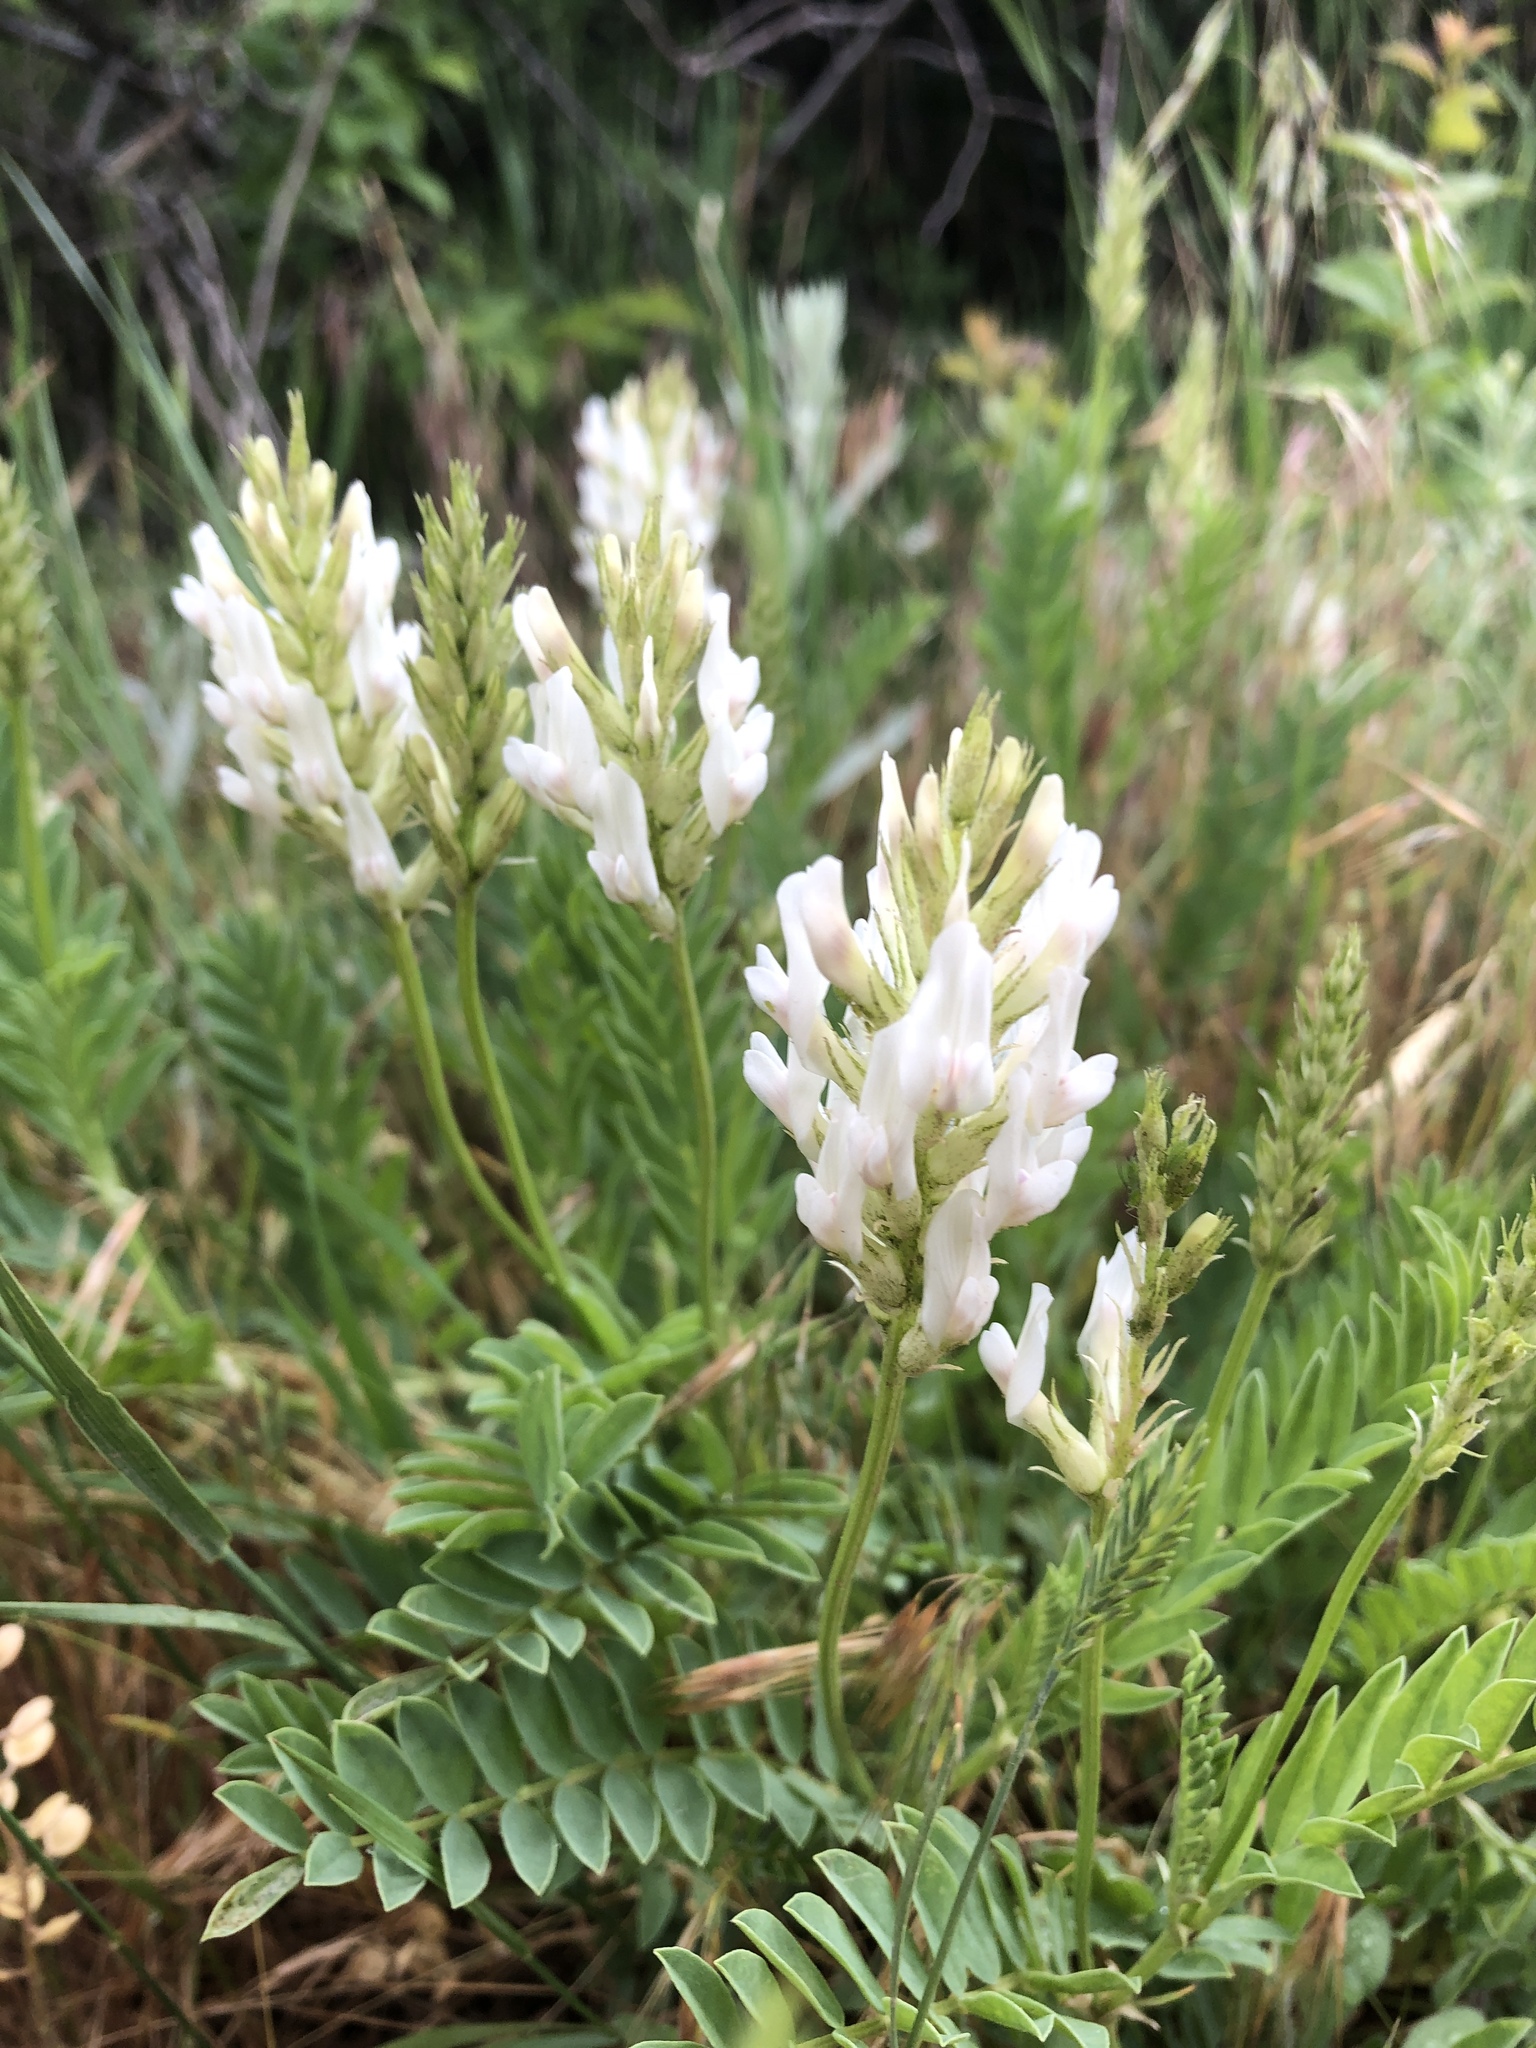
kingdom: Plantae
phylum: Tracheophyta
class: Magnoliopsida
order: Fabales
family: Fabaceae
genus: Astragalus
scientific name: Astragalus laxmannii
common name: Laxmann's milk-vetch
